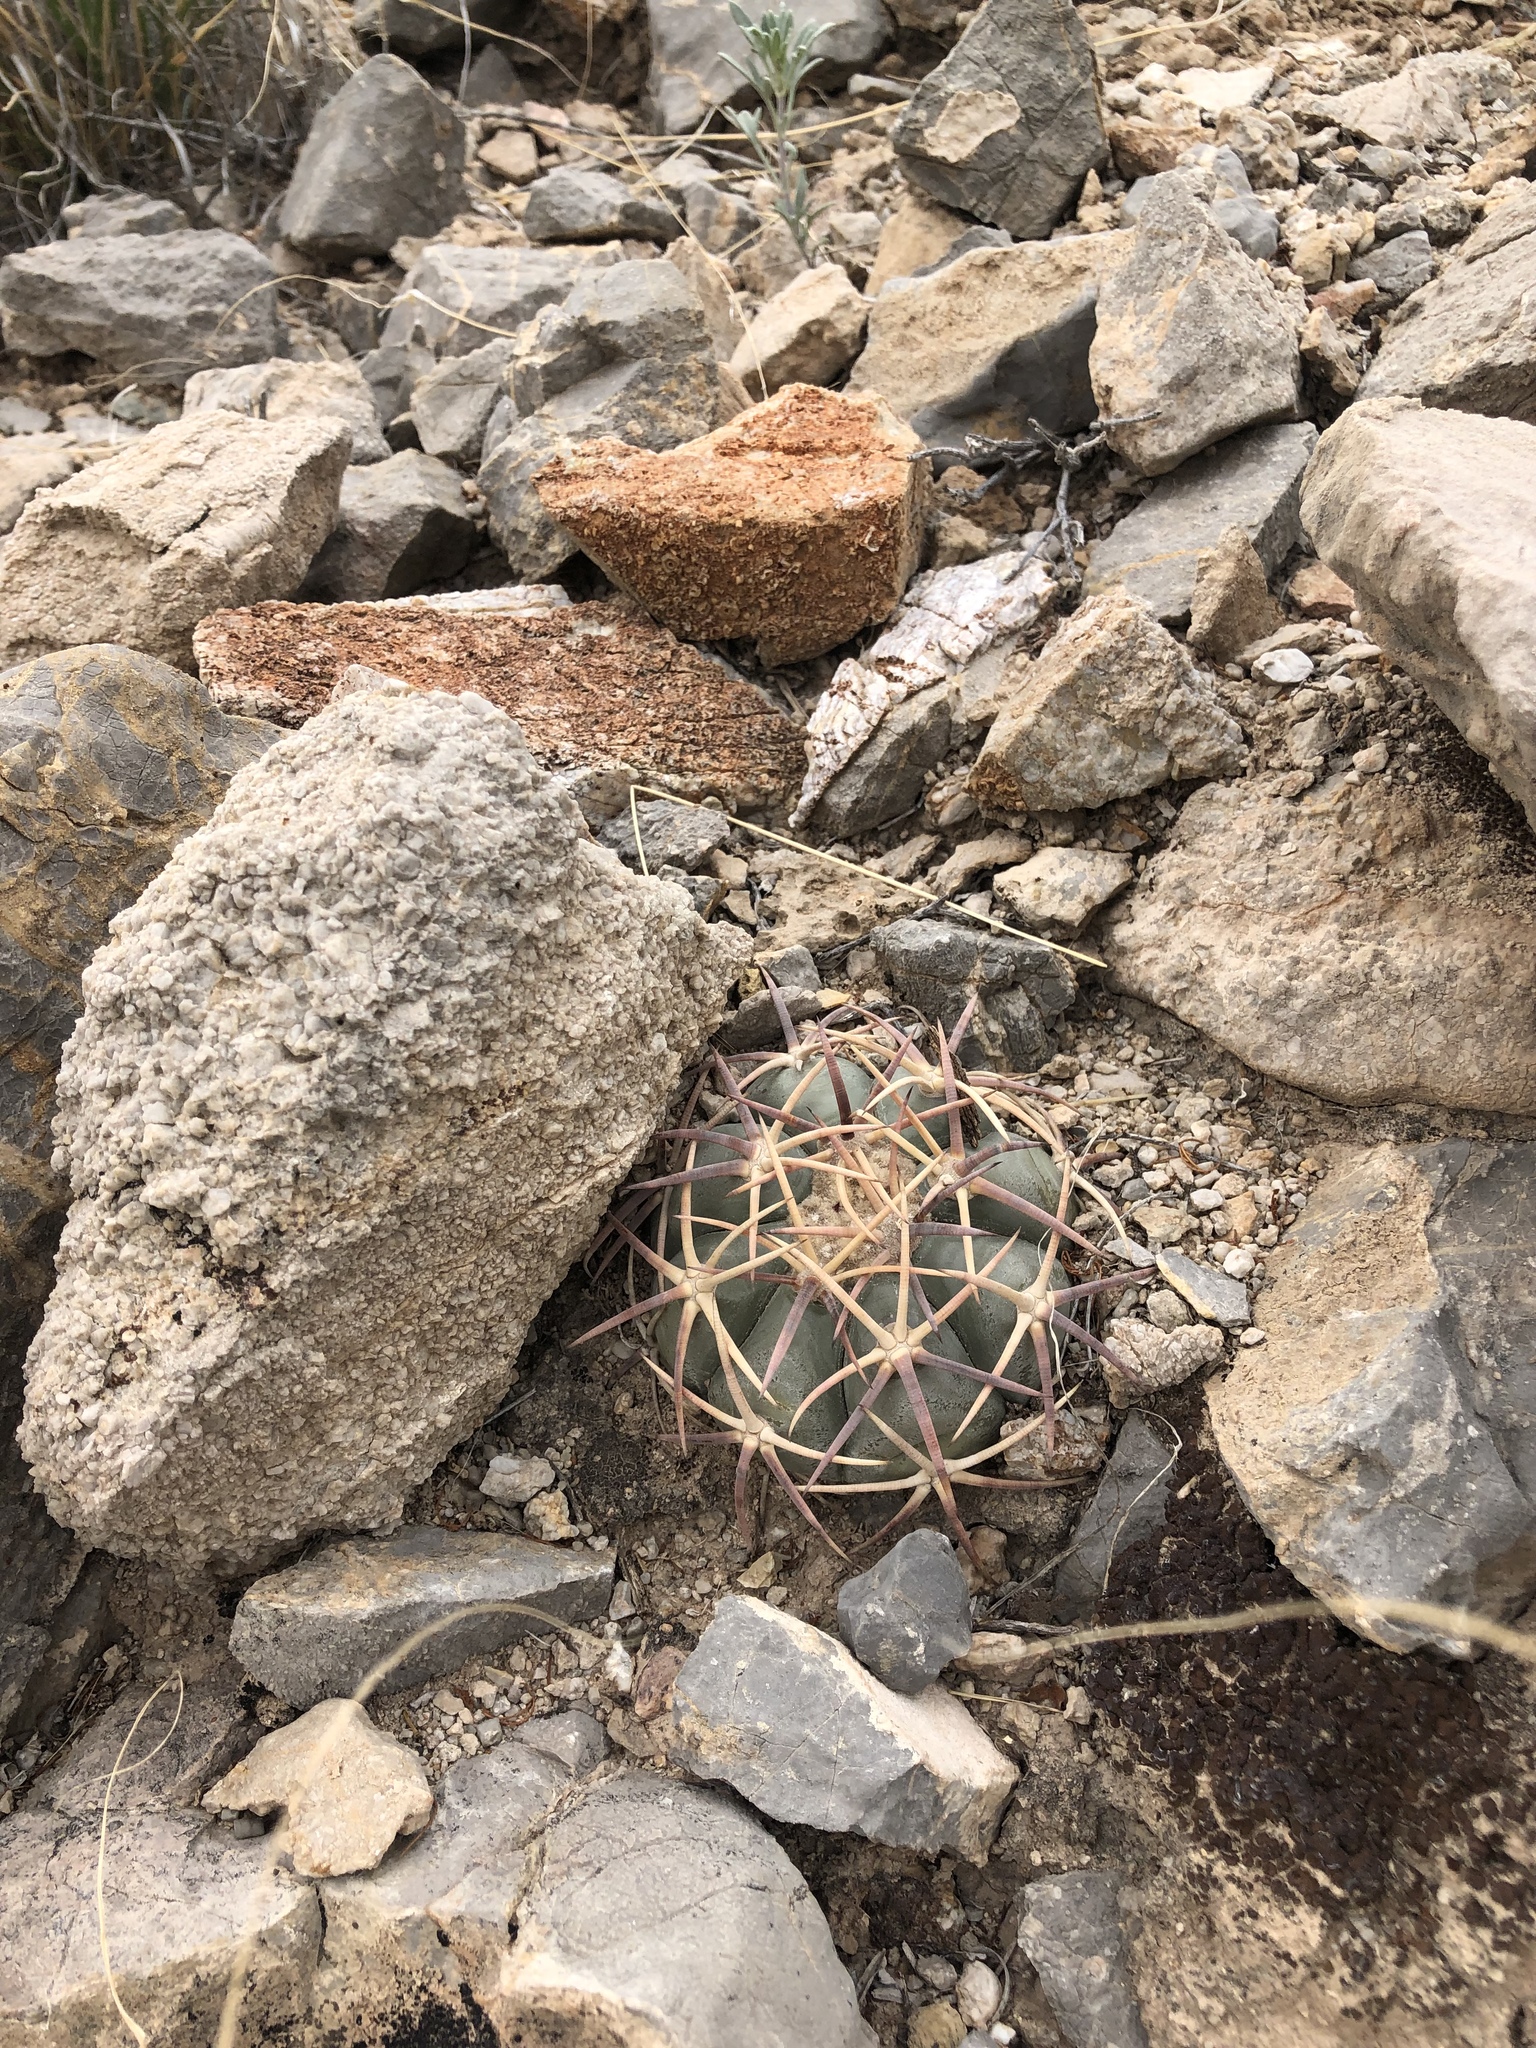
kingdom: Plantae
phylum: Tracheophyta
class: Magnoliopsida
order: Caryophyllales
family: Cactaceae
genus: Echinocactus
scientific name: Echinocactus horizonthalonius
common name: Devilshead
